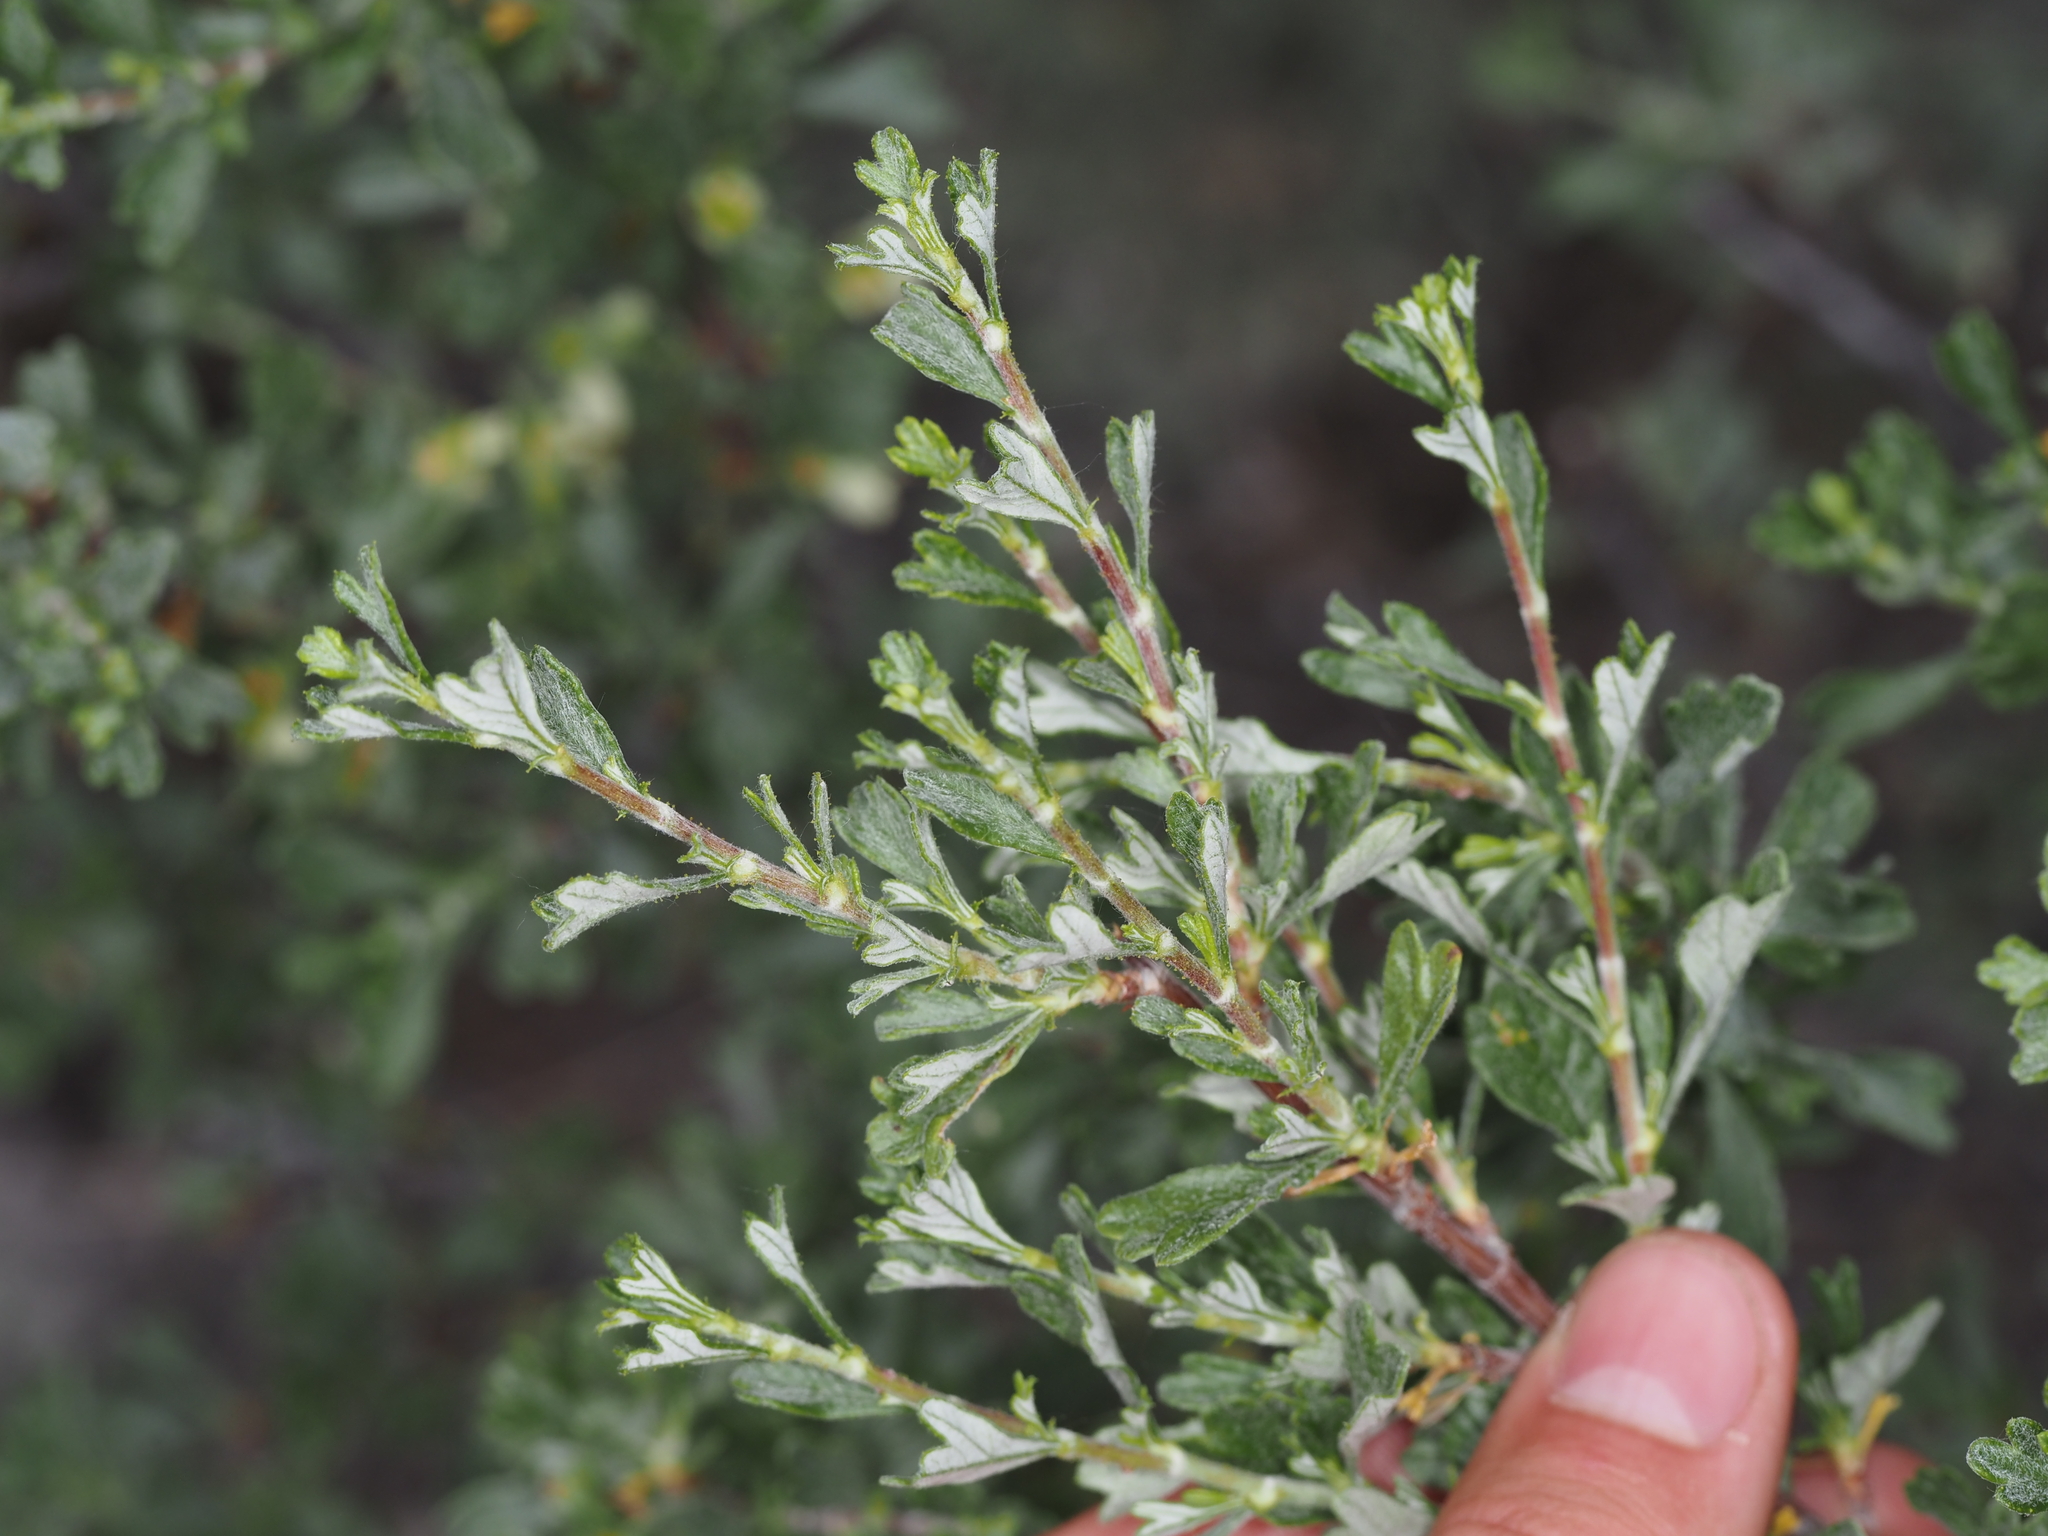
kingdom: Plantae
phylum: Tracheophyta
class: Magnoliopsida
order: Rosales
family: Rosaceae
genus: Purshia
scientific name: Purshia tridentata
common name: Antelope bitterbrush
